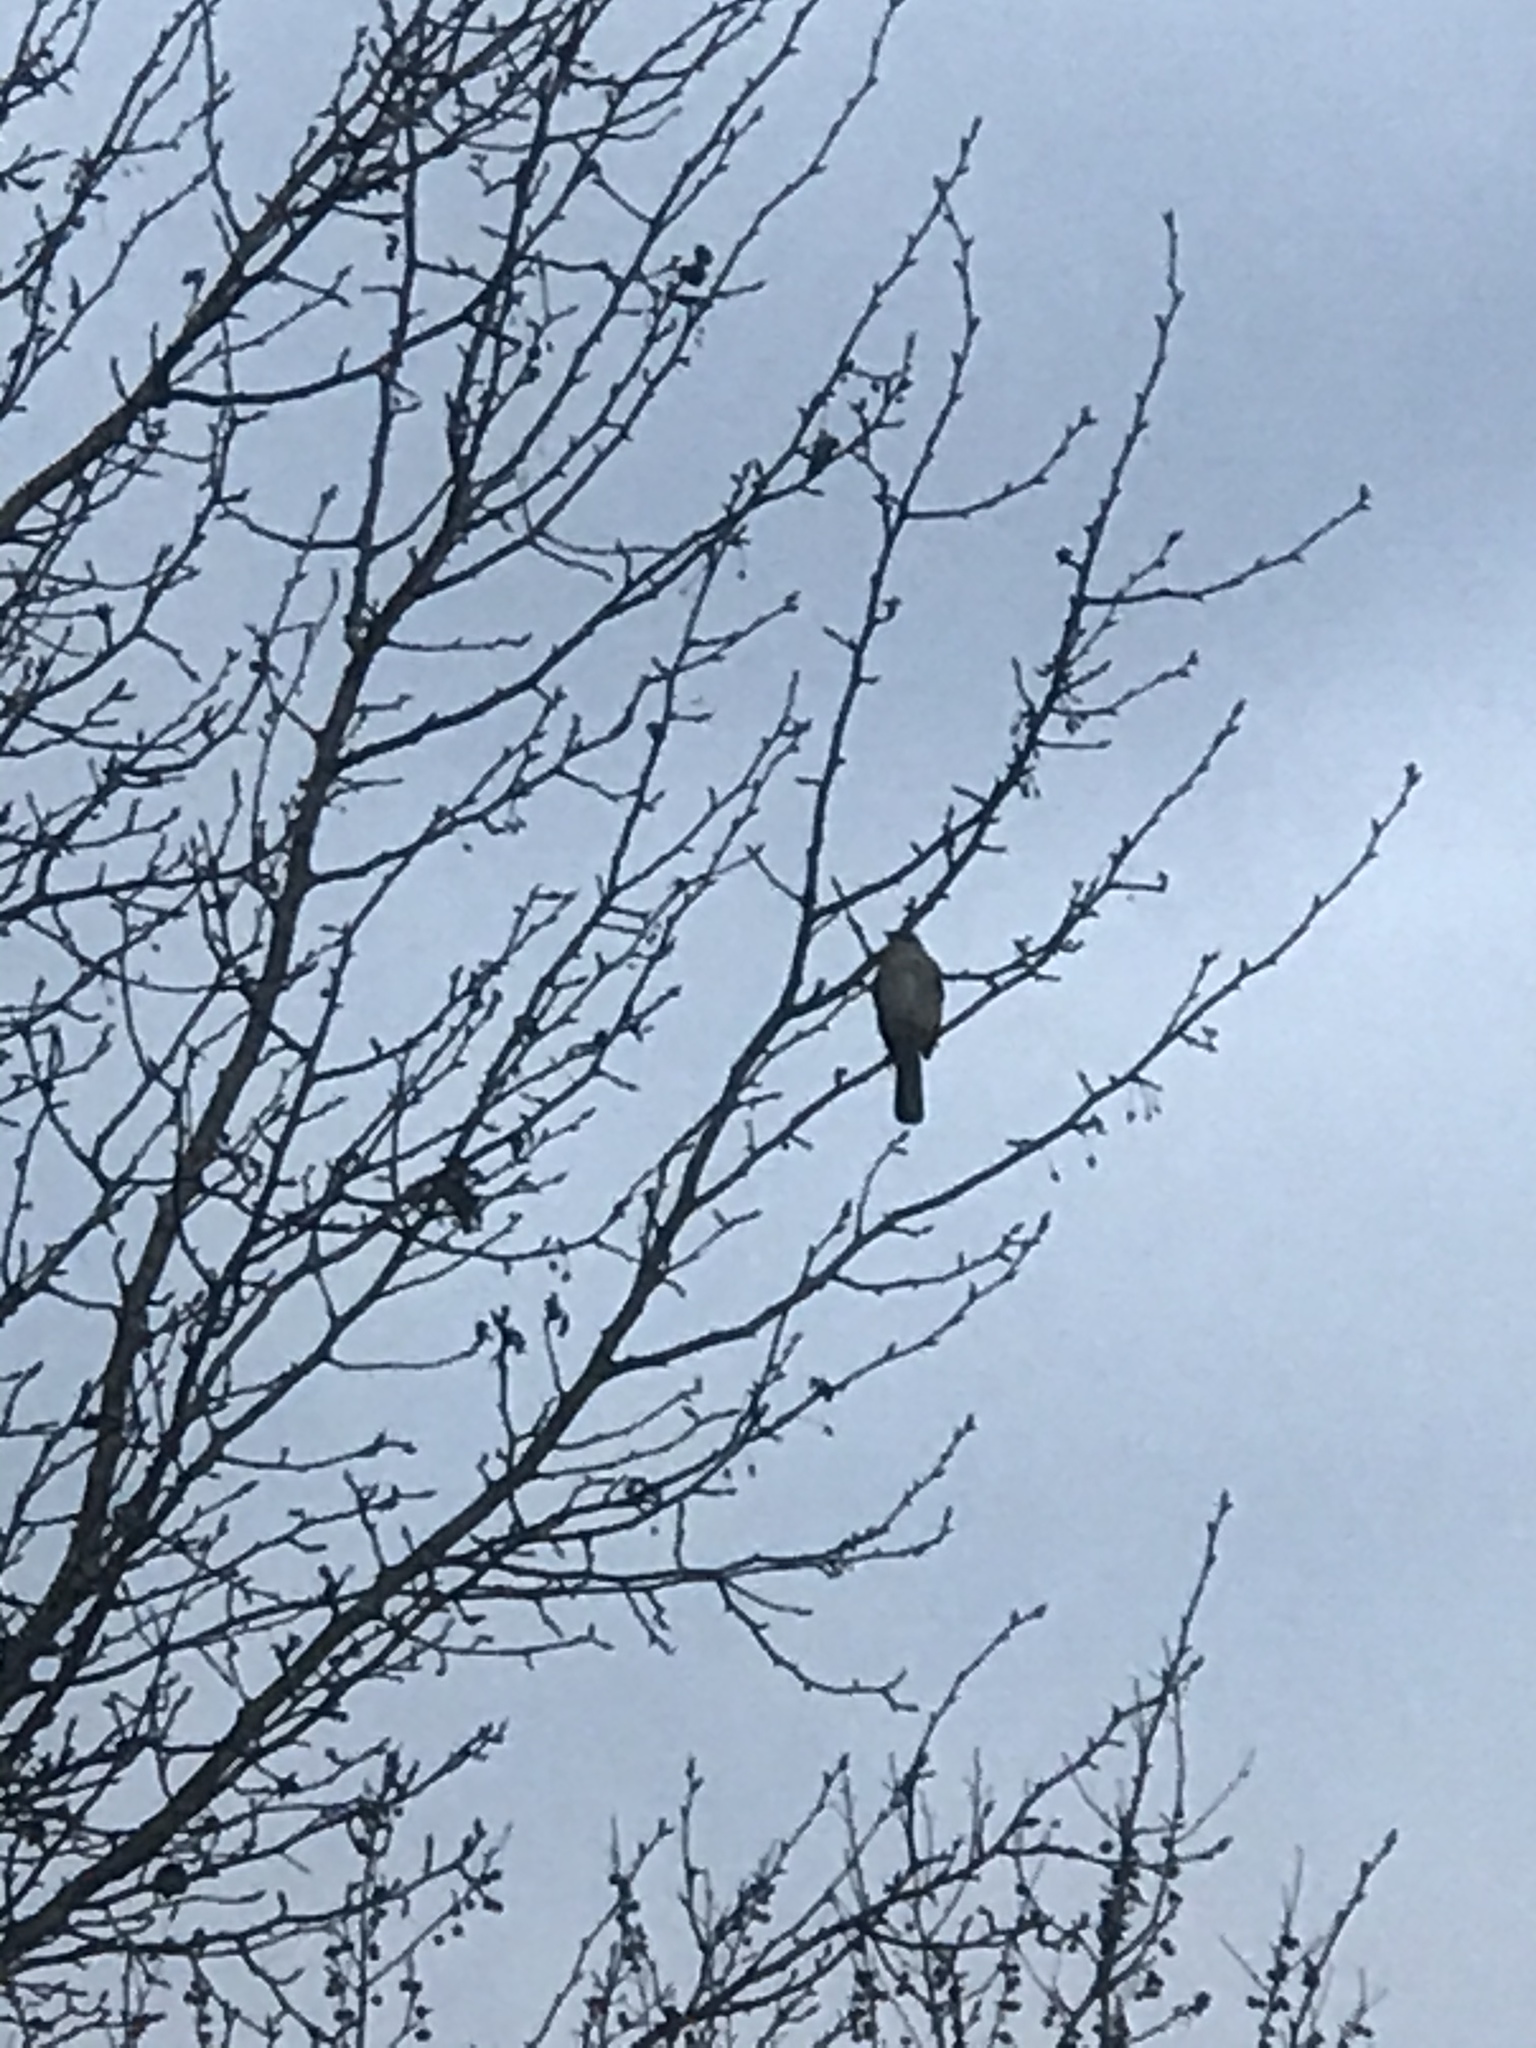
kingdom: Animalia
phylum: Chordata
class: Aves
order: Passeriformes
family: Mimidae
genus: Mimus
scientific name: Mimus polyglottos
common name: Northern mockingbird
